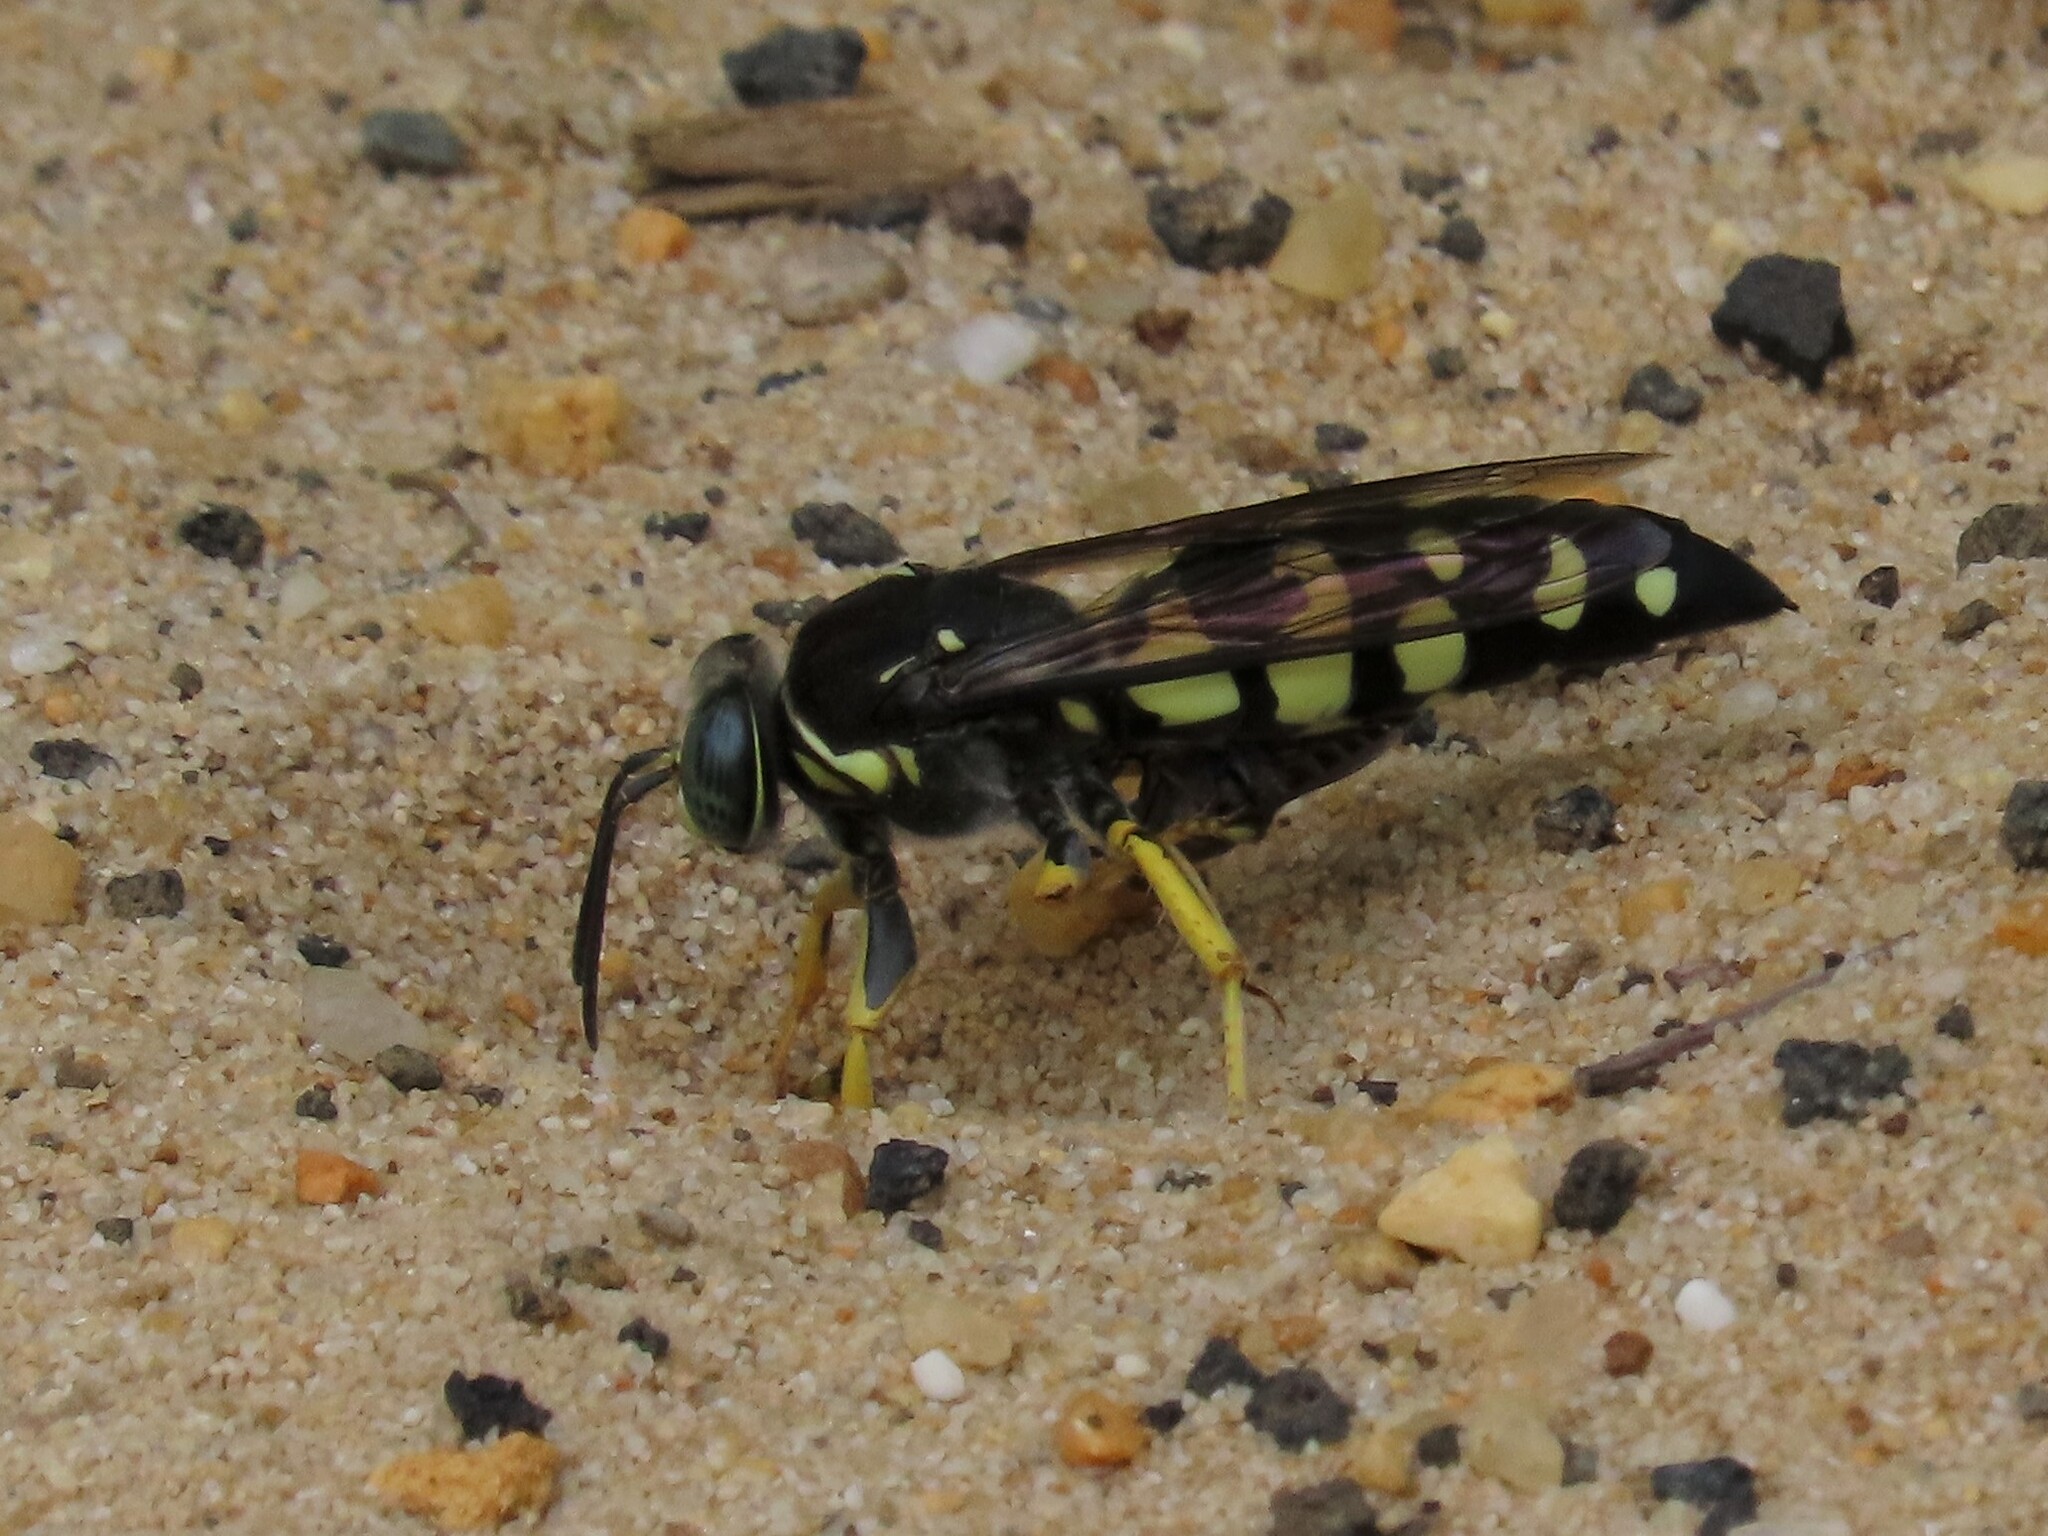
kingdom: Animalia
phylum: Arthropoda
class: Insecta
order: Hymenoptera
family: Crabronidae
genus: Stictia
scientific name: Stictia carolina
